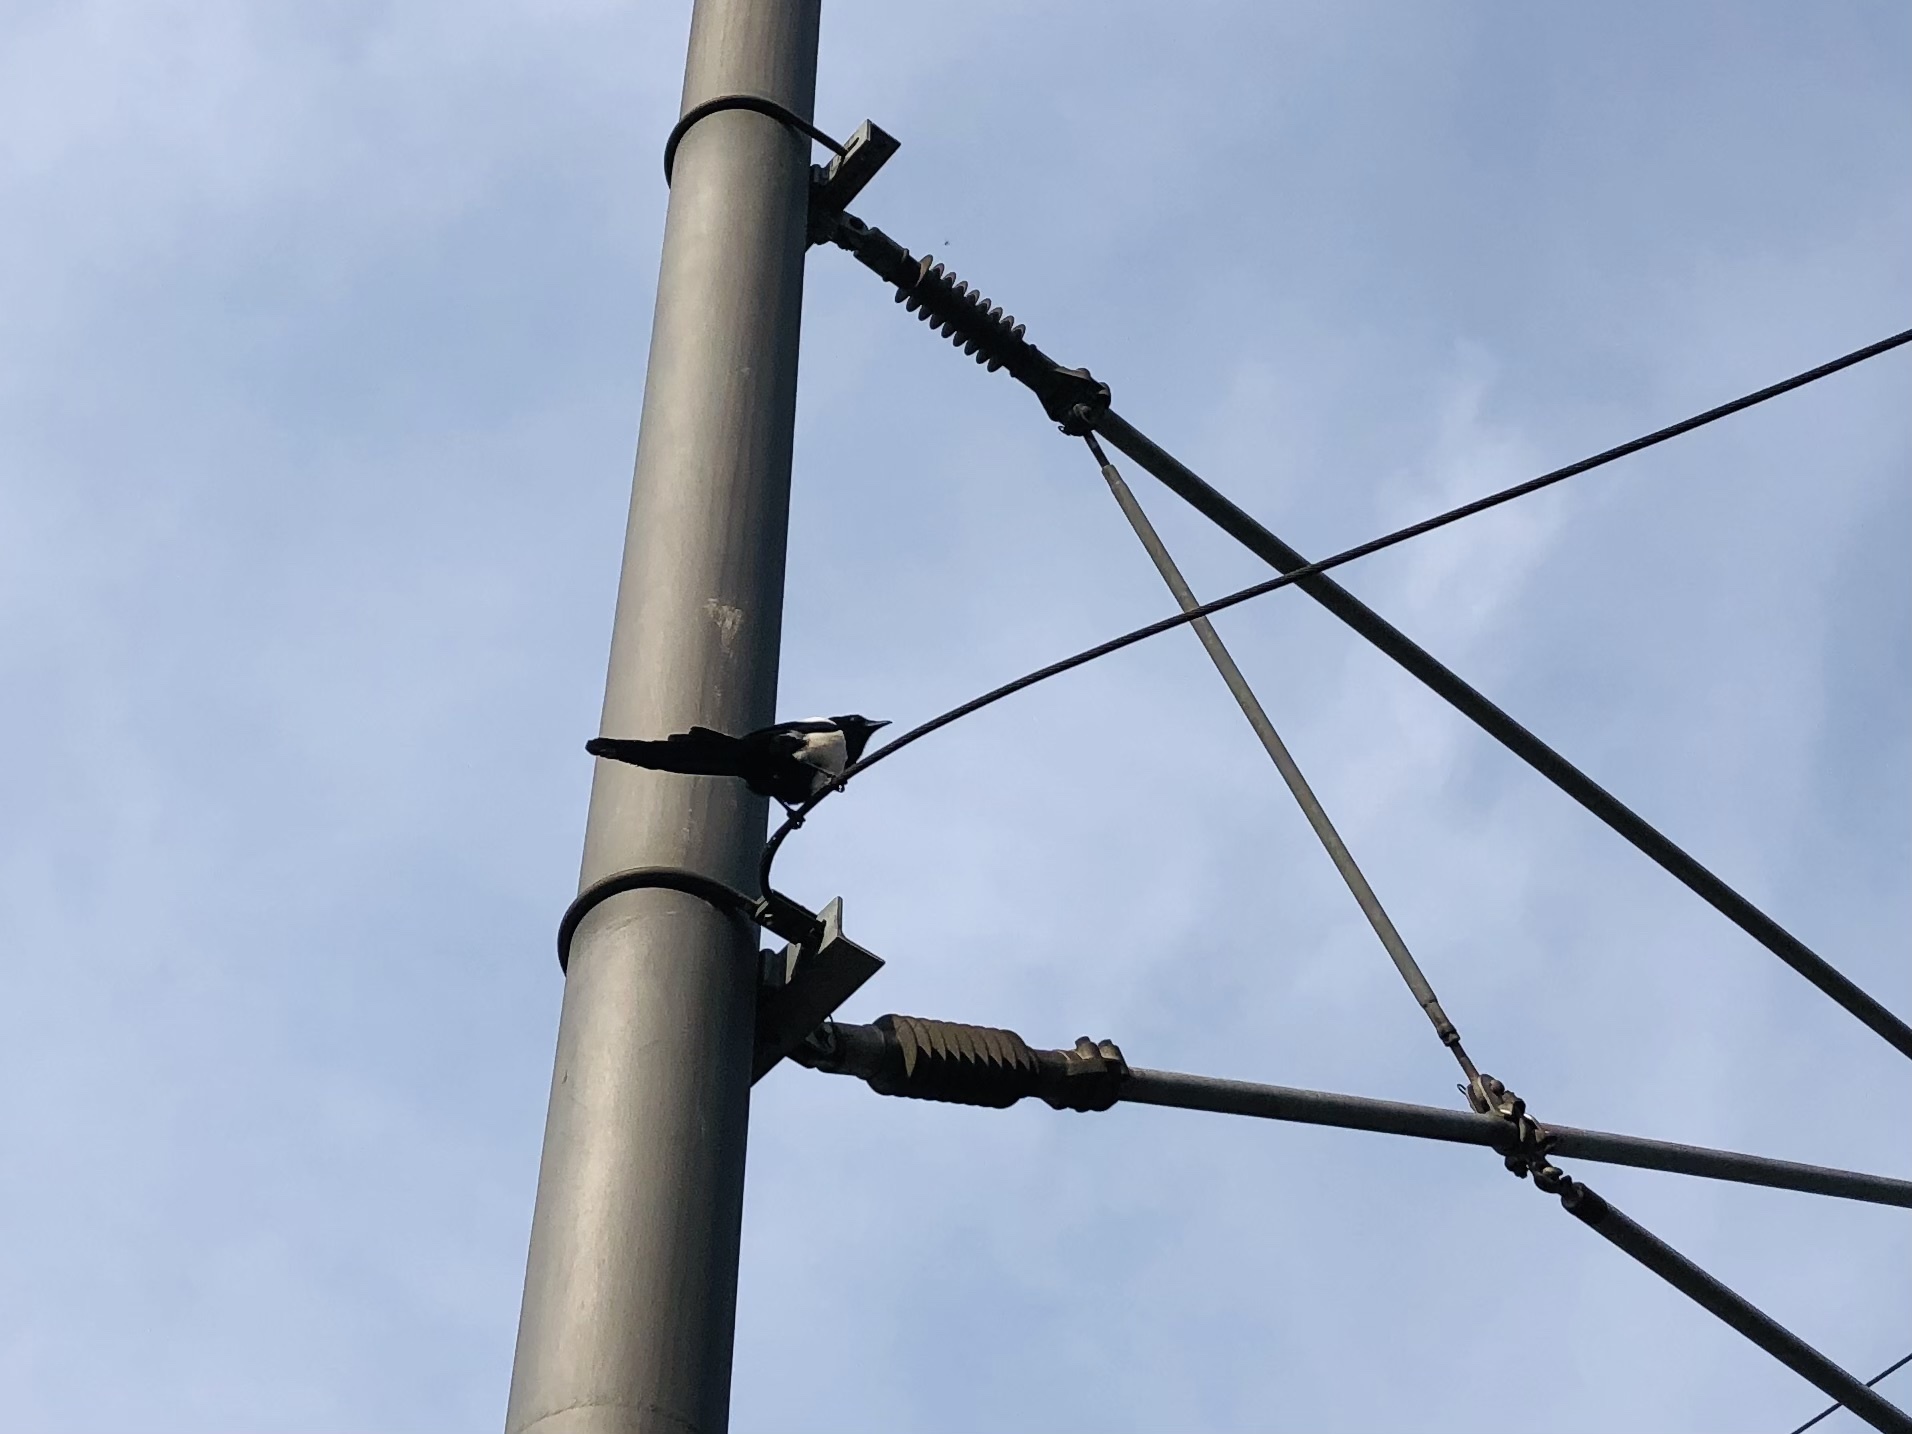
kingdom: Animalia
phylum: Chordata
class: Aves
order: Passeriformes
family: Corvidae
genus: Pica
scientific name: Pica pica
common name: Eurasian magpie
